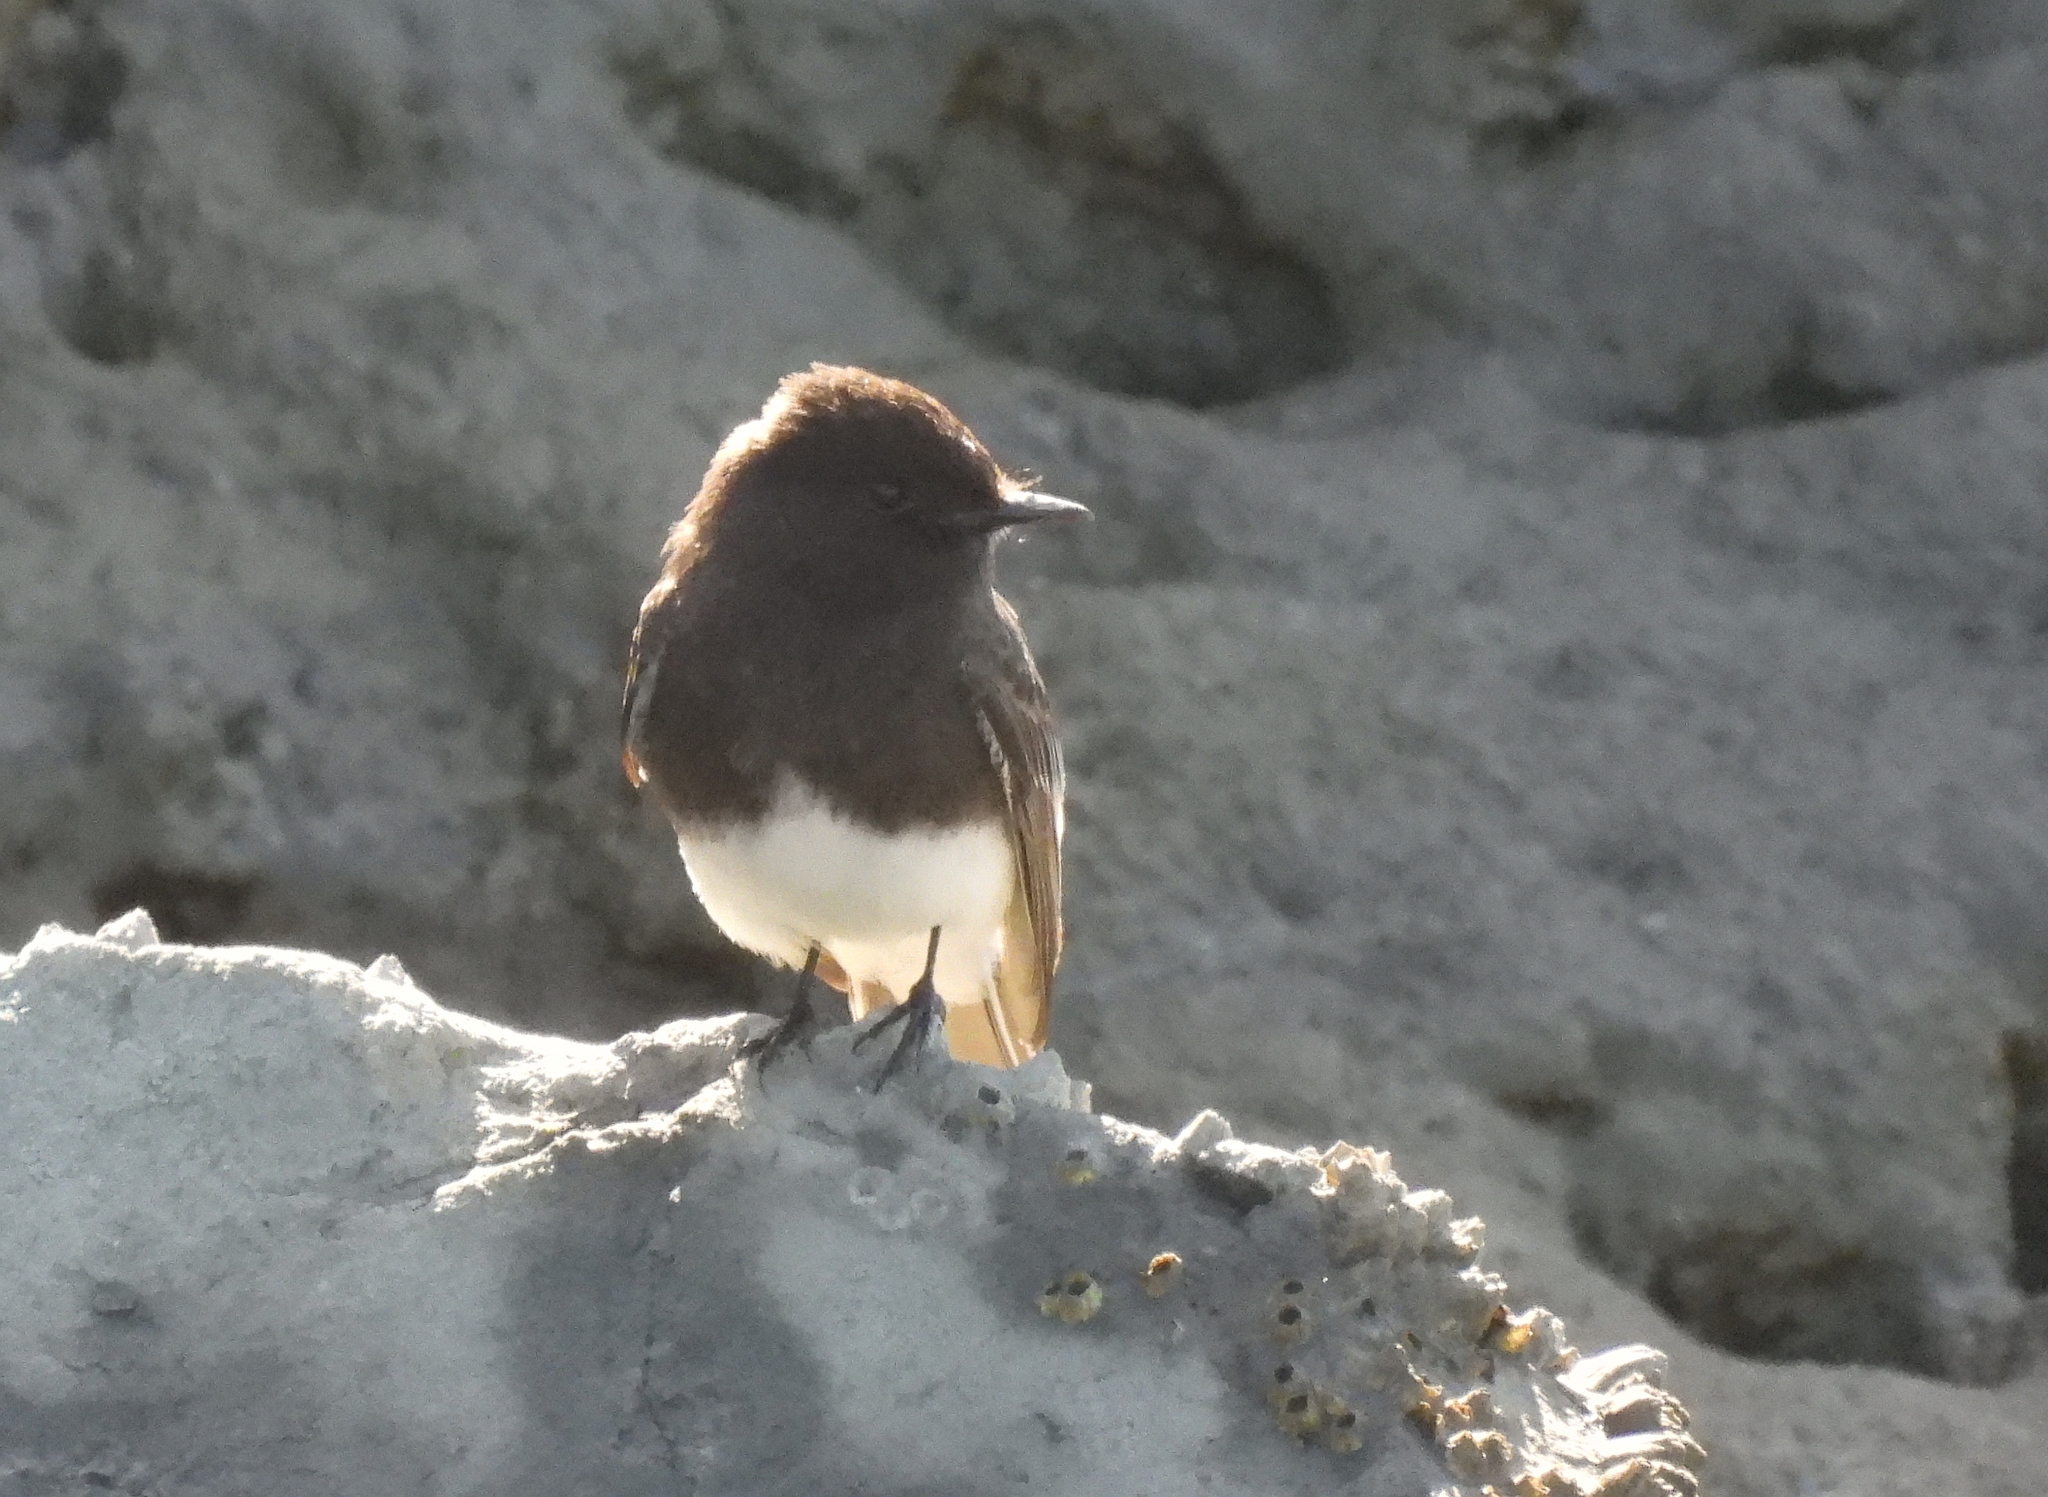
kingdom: Animalia
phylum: Chordata
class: Aves
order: Passeriformes
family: Tyrannidae
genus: Sayornis
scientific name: Sayornis nigricans
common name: Black phoebe
